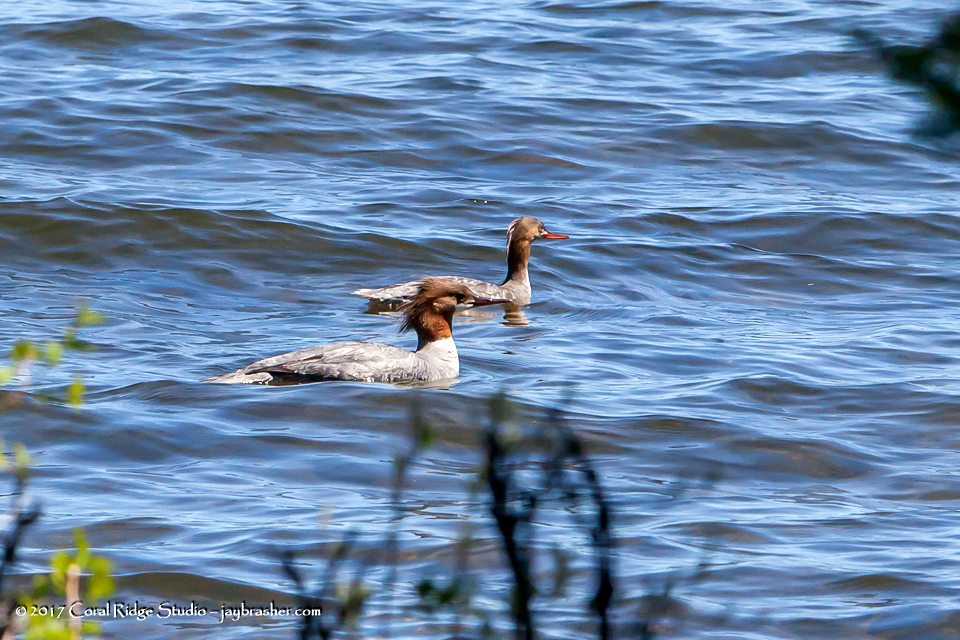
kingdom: Animalia
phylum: Chordata
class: Aves
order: Anseriformes
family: Anatidae
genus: Mergus
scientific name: Mergus merganser
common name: Common merganser
